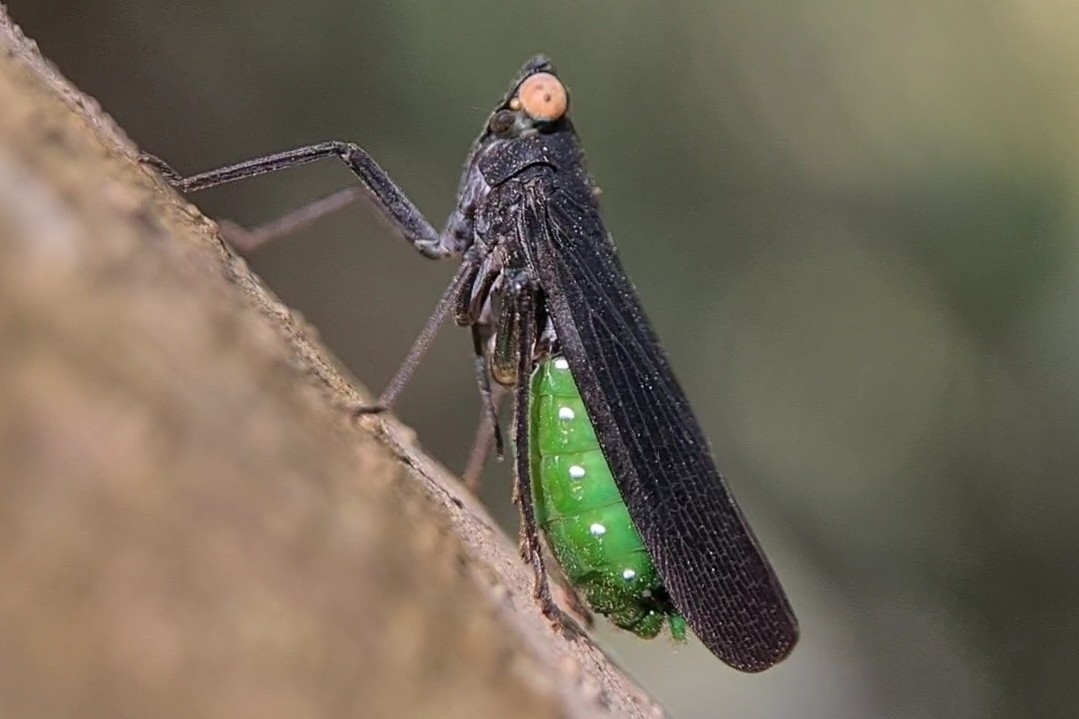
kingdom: Animalia
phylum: Arthropoda
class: Insecta
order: Hemiptera
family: Fulgoridae
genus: Desudaba
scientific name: Desudaba psittacus
